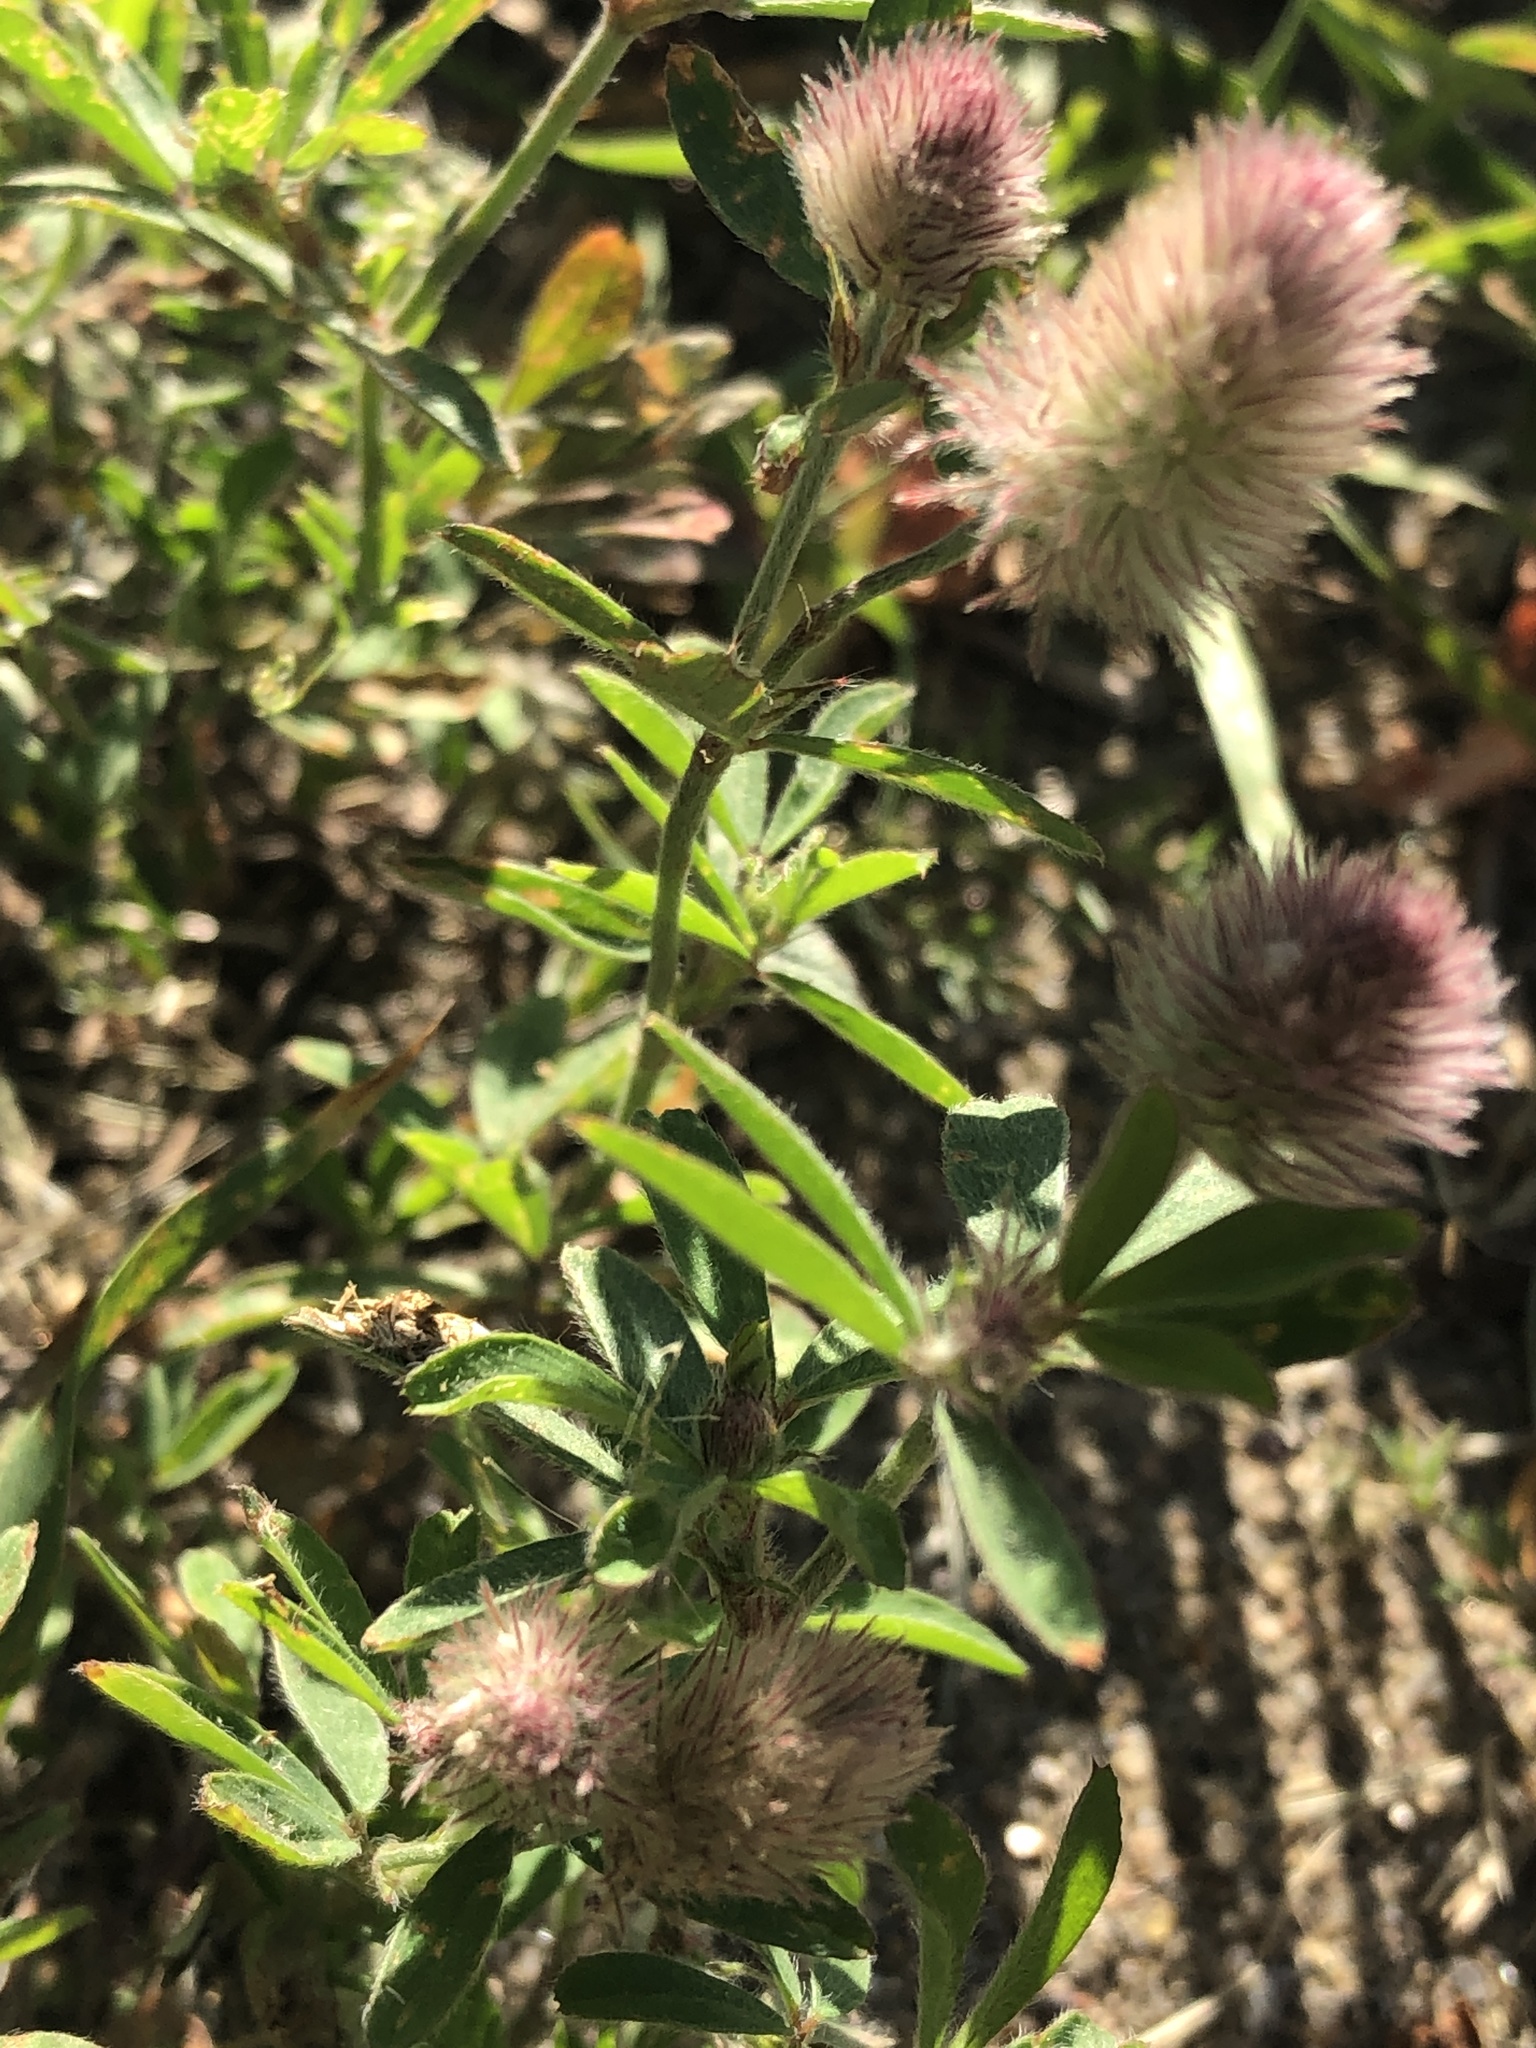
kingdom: Plantae
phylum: Tracheophyta
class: Magnoliopsida
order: Fabales
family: Fabaceae
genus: Trifolium
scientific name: Trifolium arvense
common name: Hare's-foot clover
